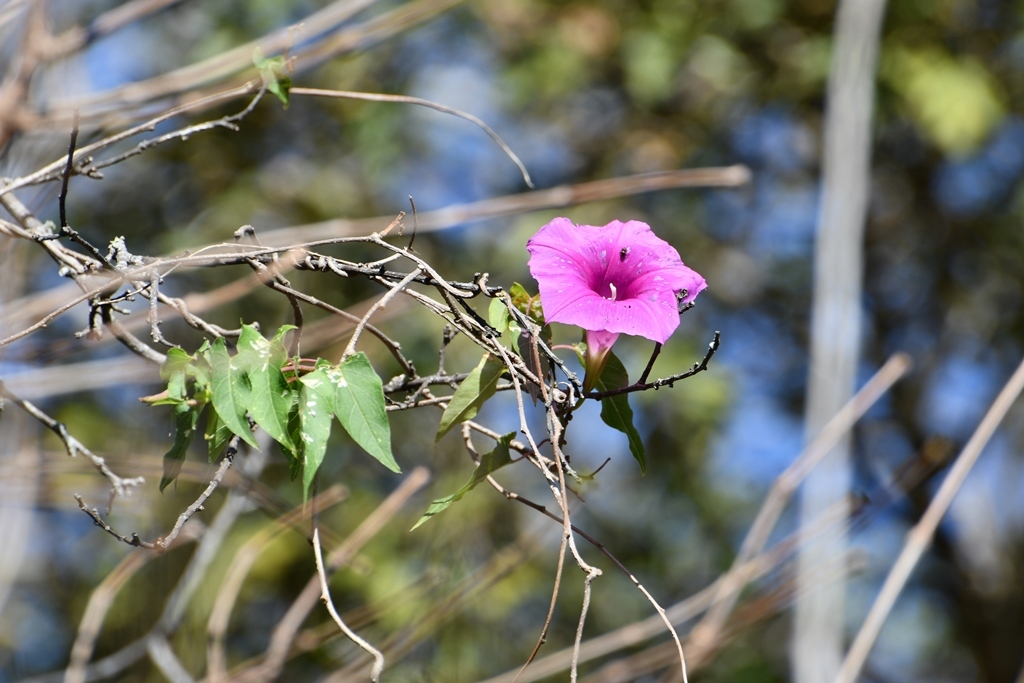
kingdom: Plantae
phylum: Tracheophyta
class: Magnoliopsida
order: Solanales
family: Convolvulaceae
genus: Ipomoea
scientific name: Ipomoea bernoulliana
